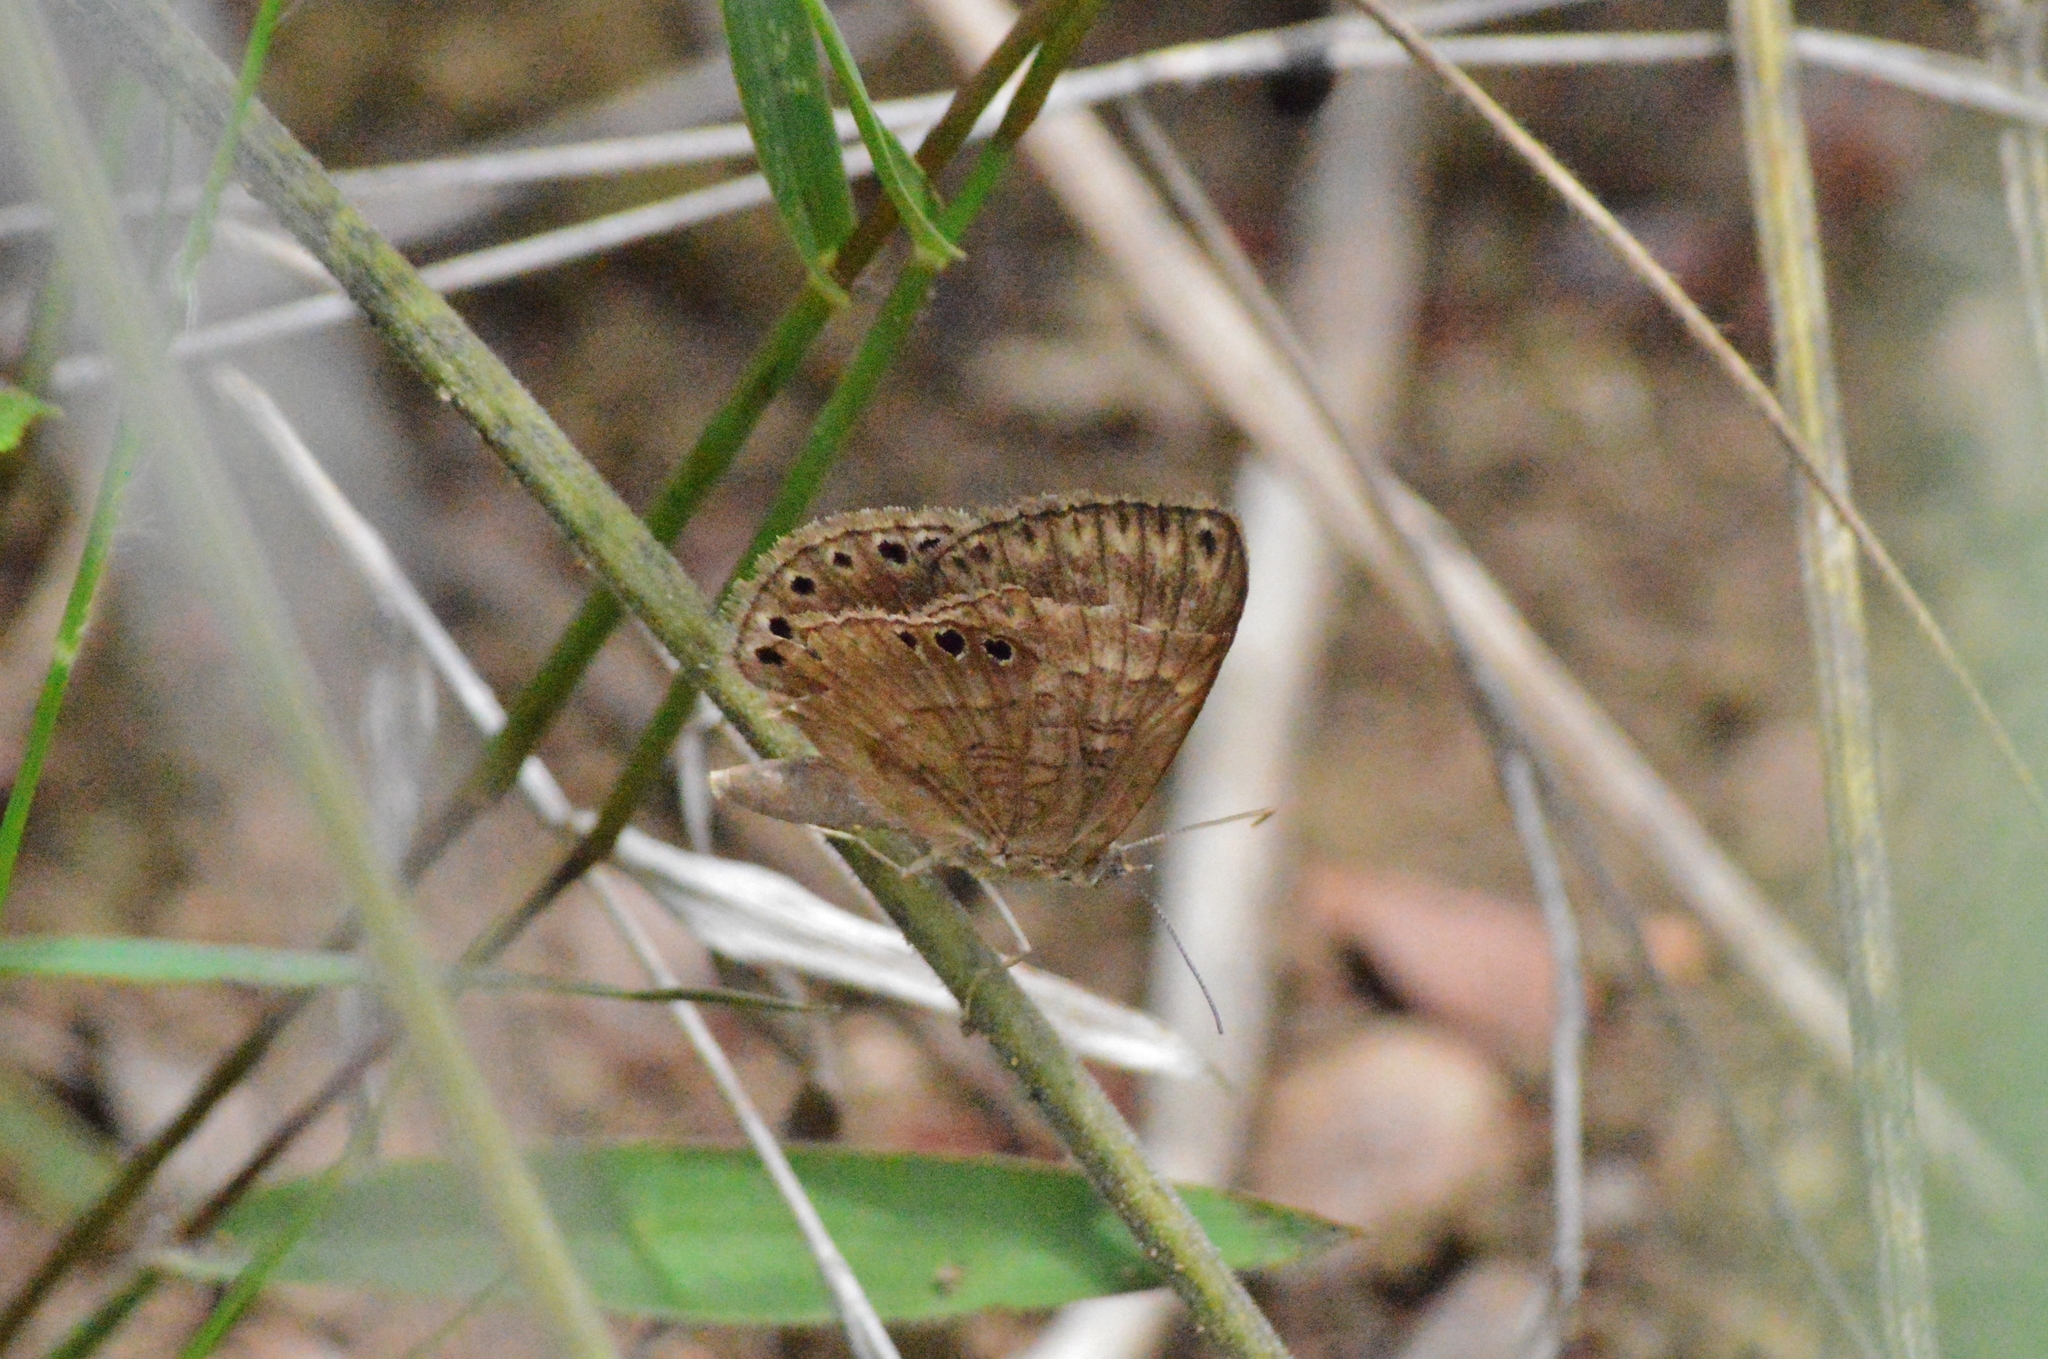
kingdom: Animalia
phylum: Arthropoda
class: Insecta
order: Lepidoptera
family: Lycaenidae
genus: Aricoris
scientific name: Aricoris emeryi
